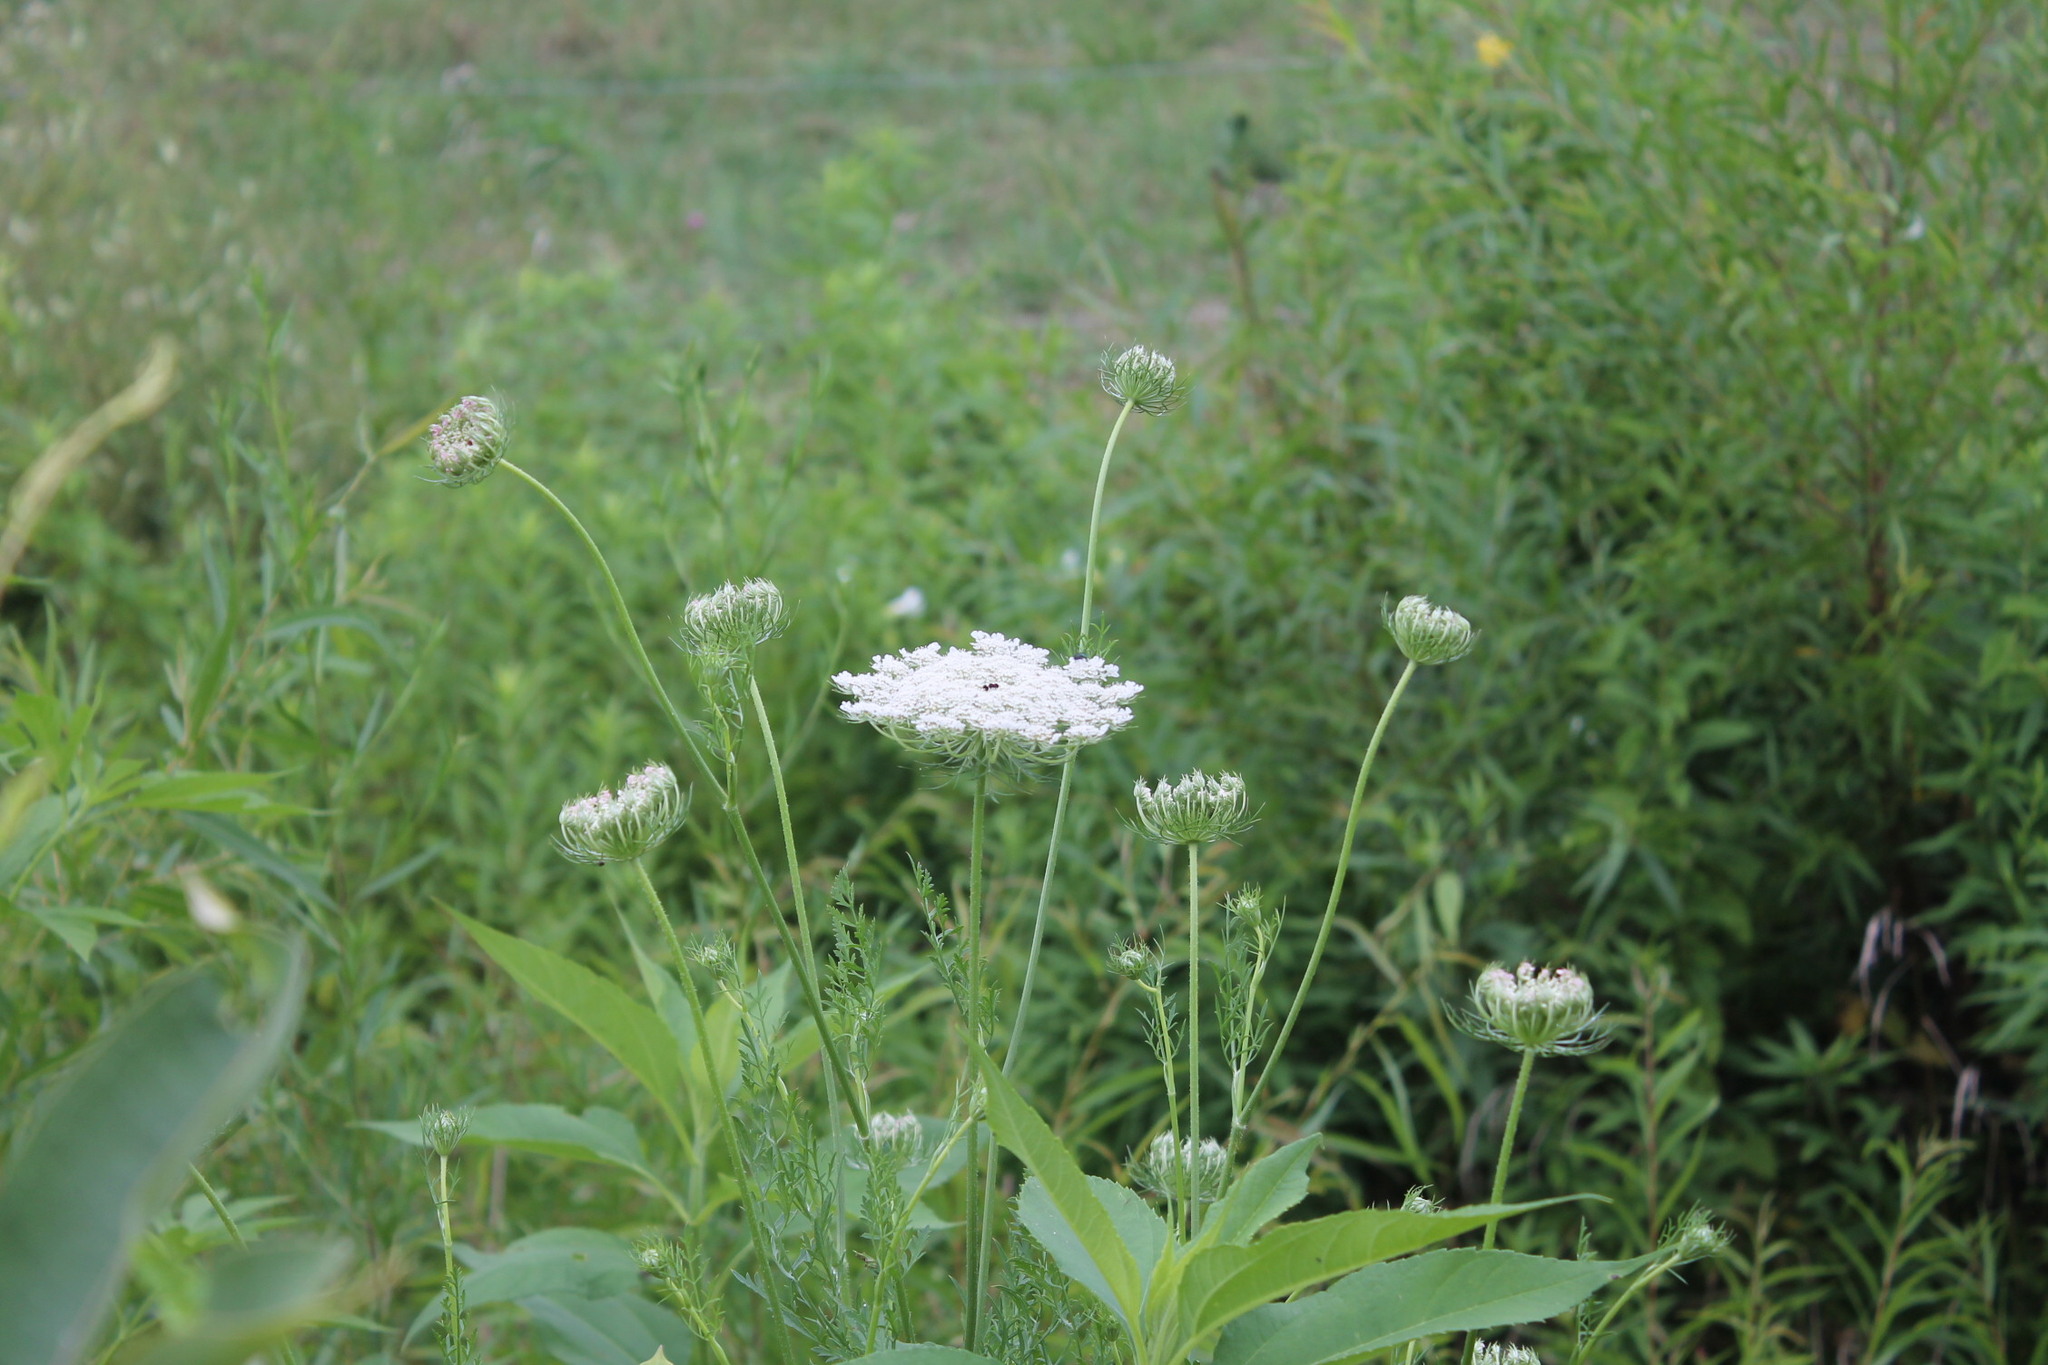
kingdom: Plantae
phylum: Tracheophyta
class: Magnoliopsida
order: Apiales
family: Apiaceae
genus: Daucus
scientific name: Daucus carota
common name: Wild carrot
